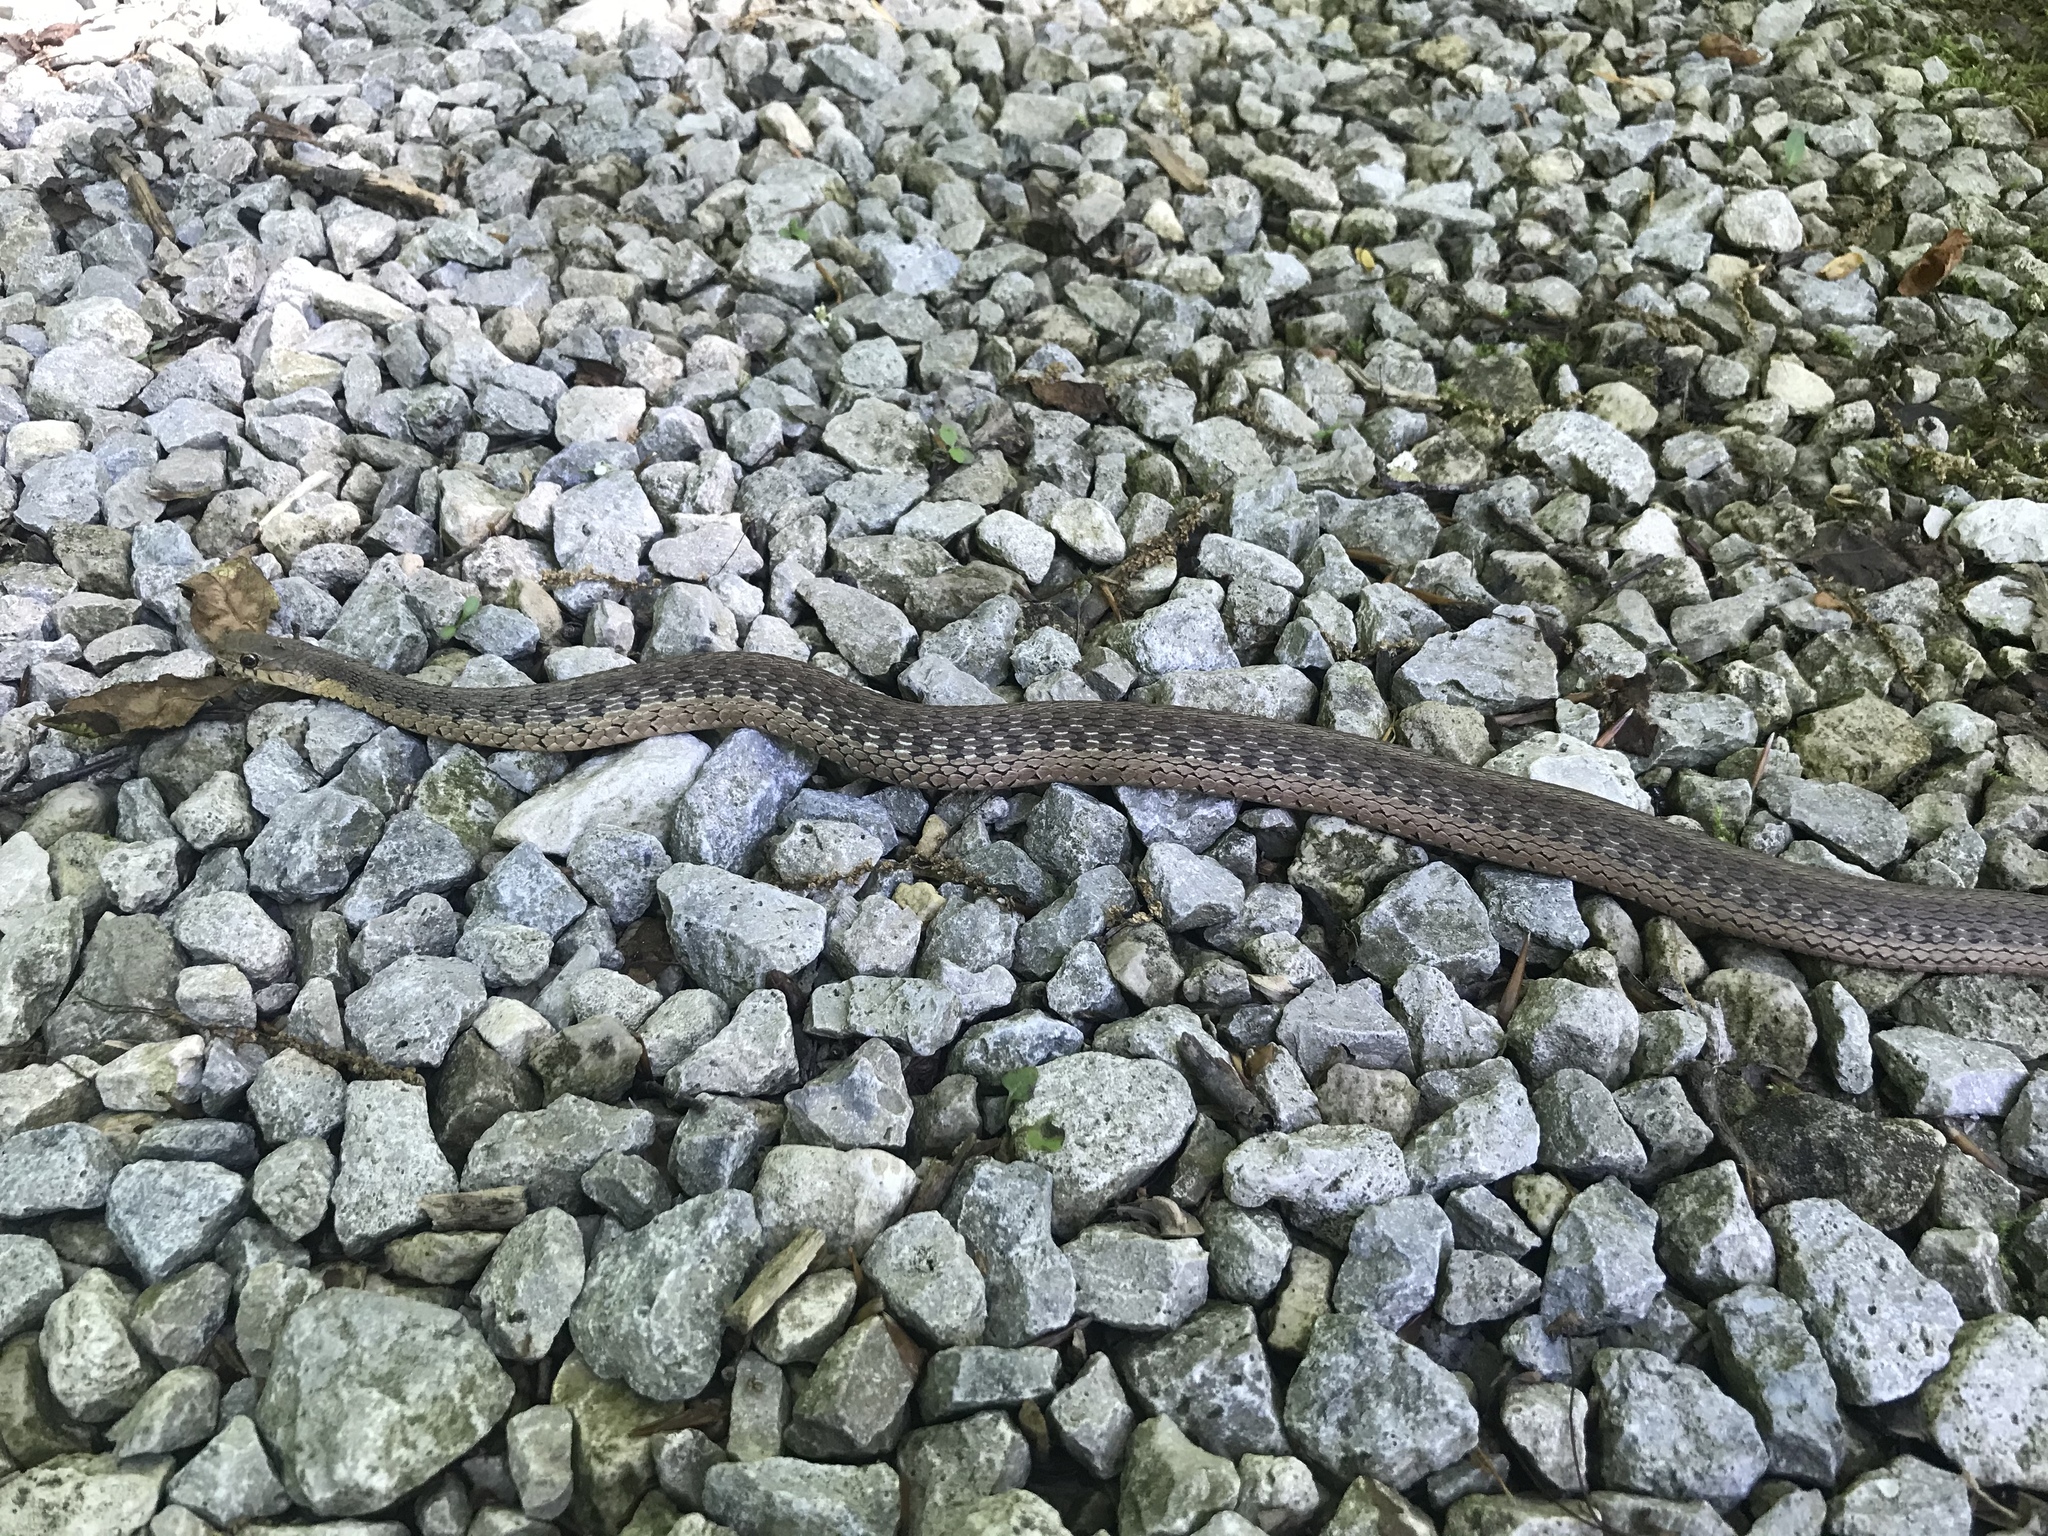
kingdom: Animalia
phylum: Chordata
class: Squamata
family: Colubridae
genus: Thamnophis
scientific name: Thamnophis sirtalis
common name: Common garter snake
